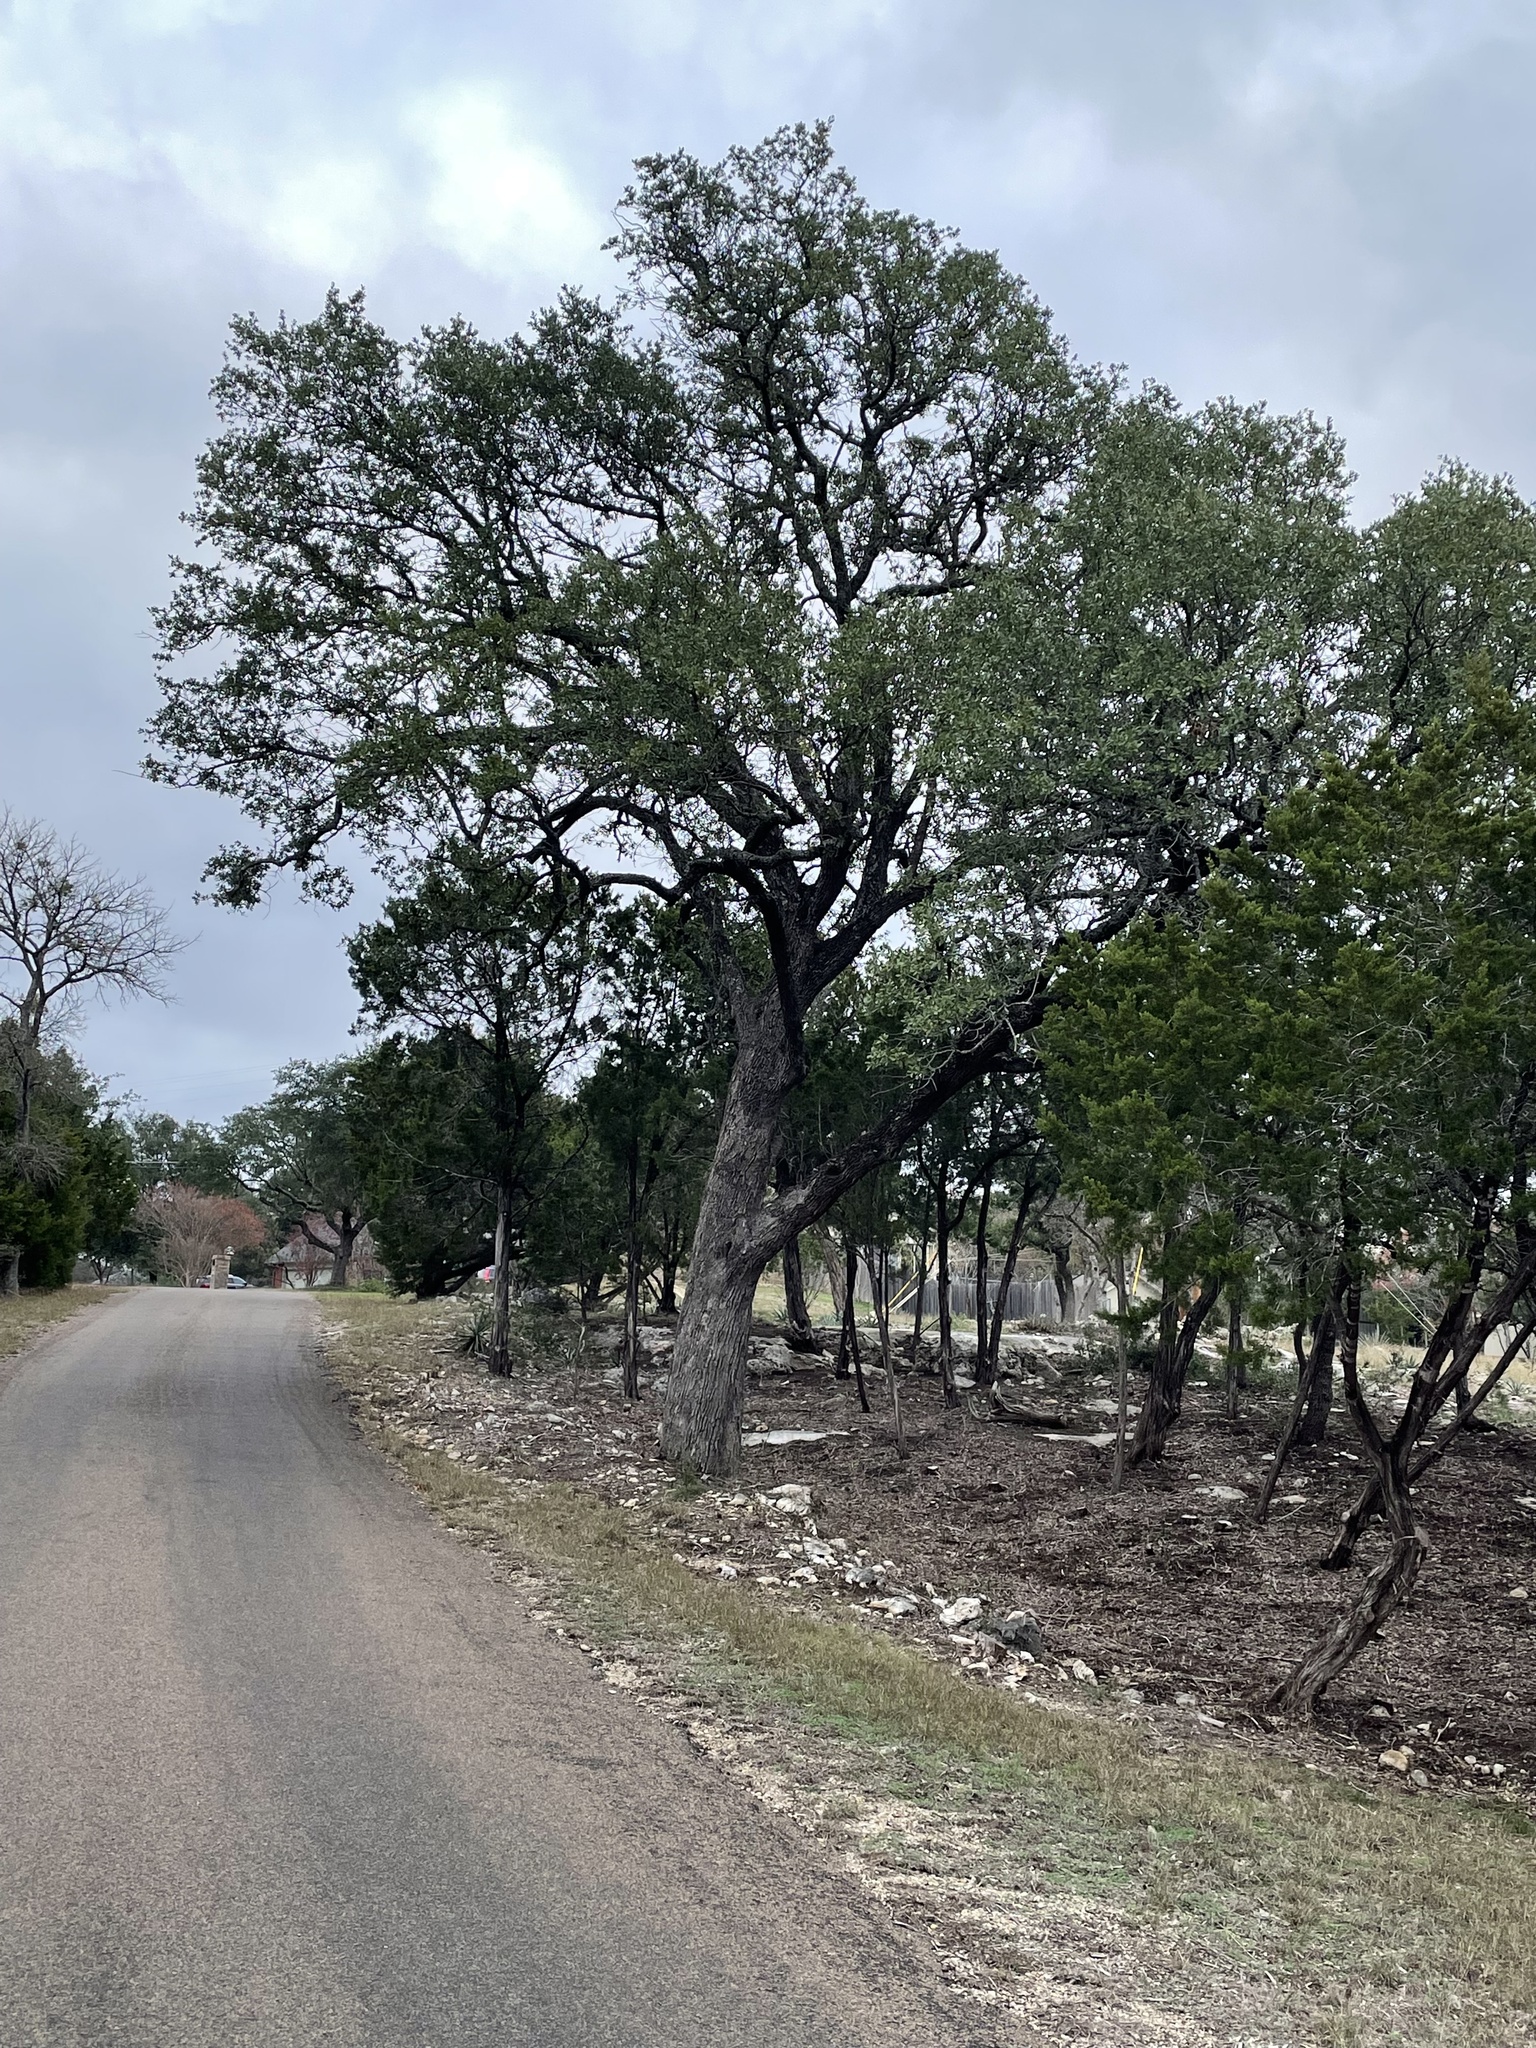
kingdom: Plantae
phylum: Tracheophyta
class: Magnoliopsida
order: Fagales
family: Fagaceae
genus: Quercus
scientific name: Quercus fusiformis
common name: Texas live oak
